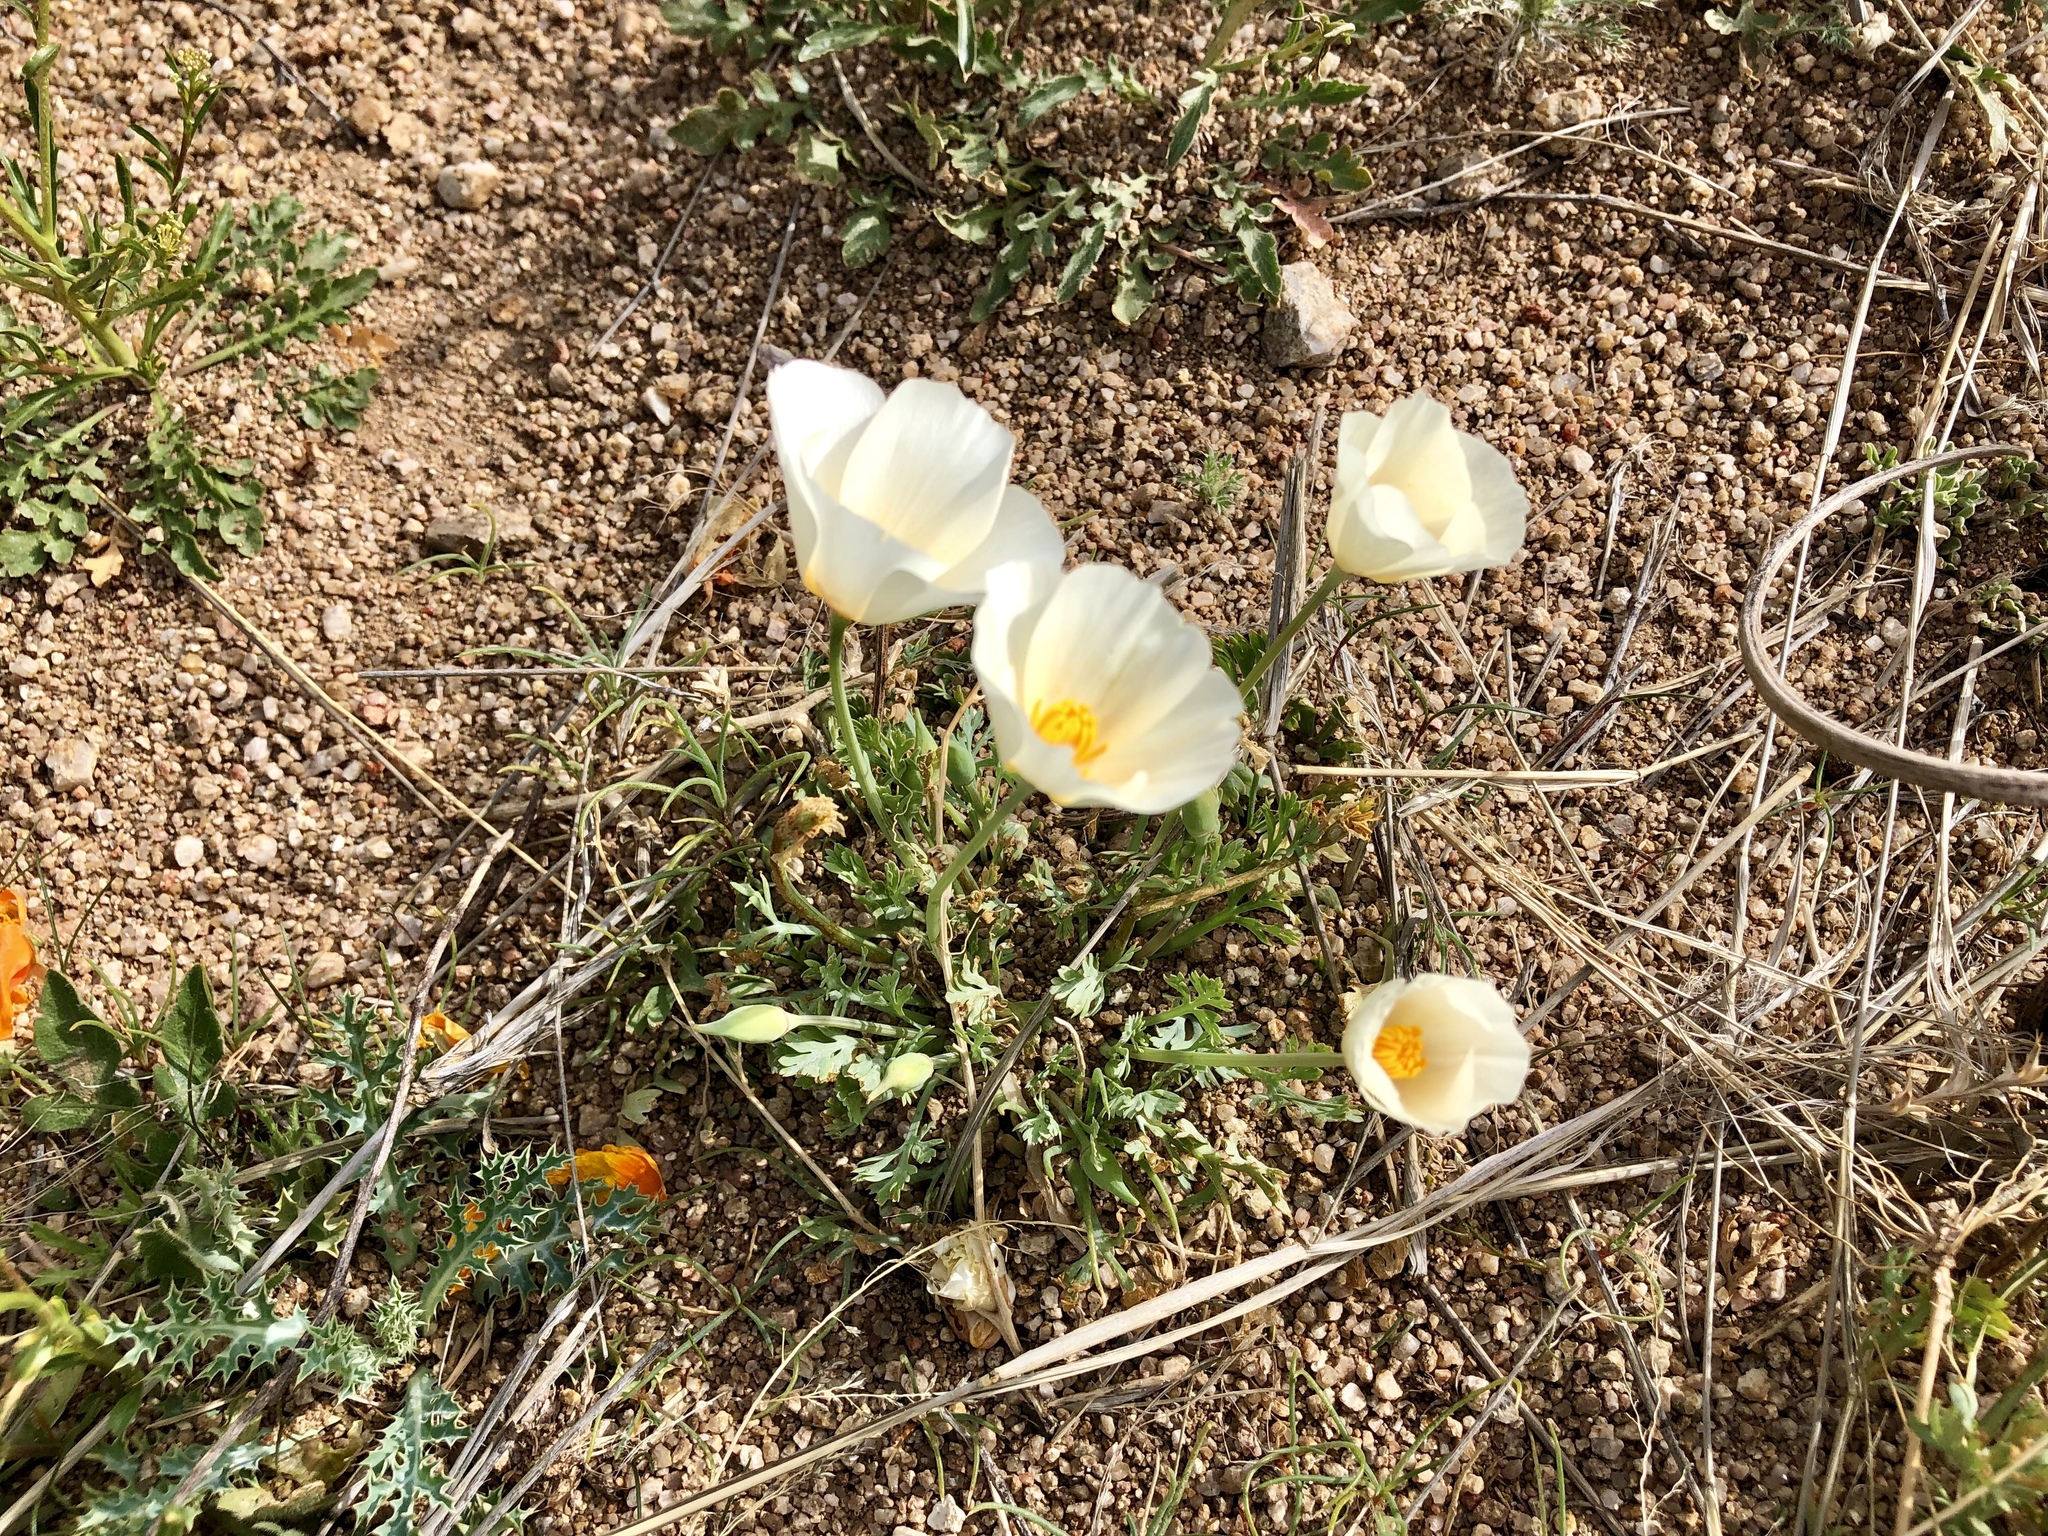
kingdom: Plantae
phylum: Tracheophyta
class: Magnoliopsida
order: Ranunculales
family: Papaveraceae
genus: Eschscholzia
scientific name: Eschscholzia californica
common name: California poppy
